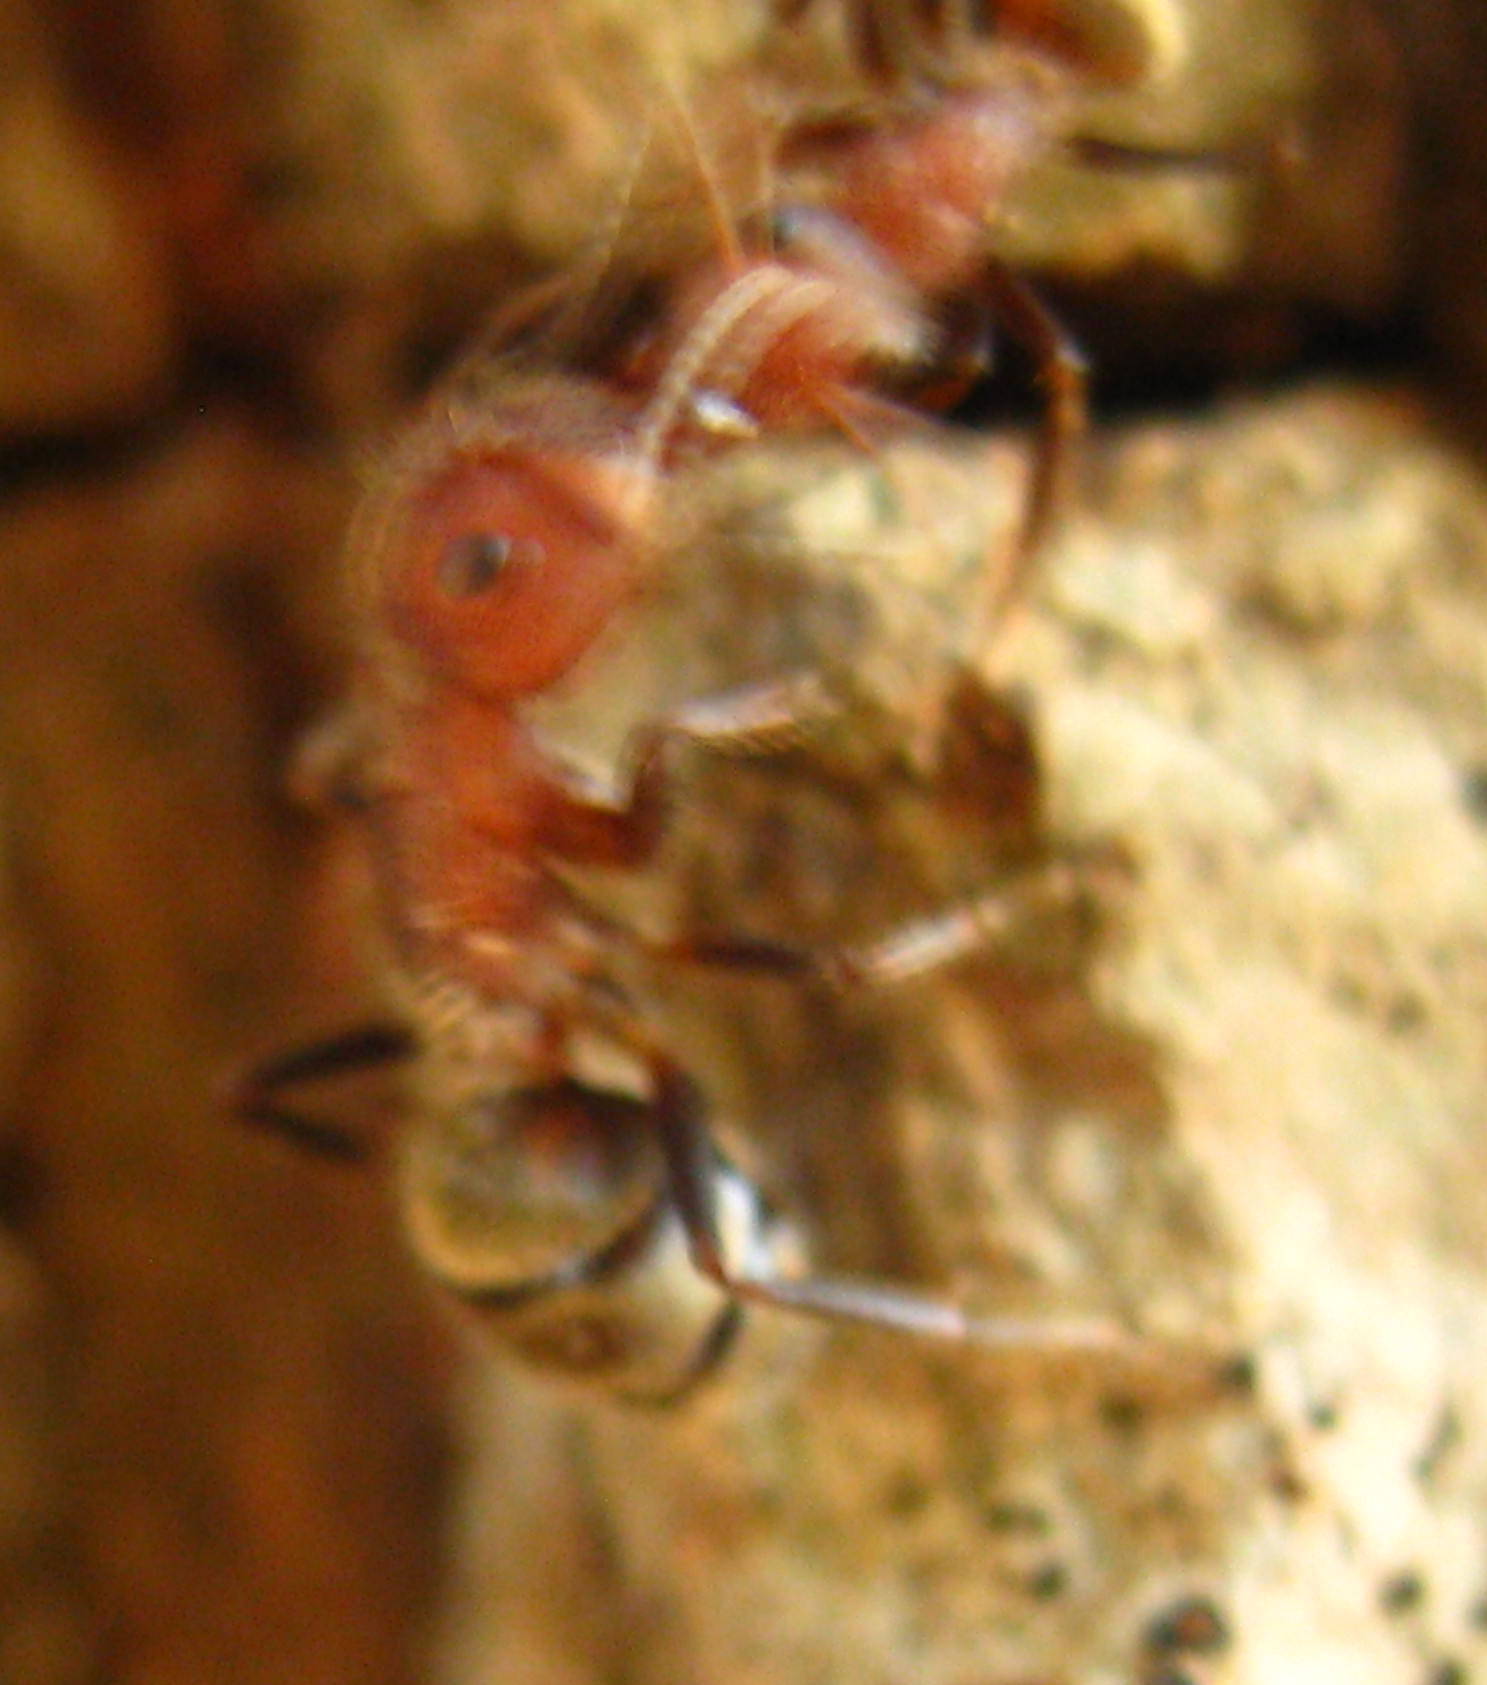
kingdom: Animalia
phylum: Arthropoda
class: Insecta
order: Hymenoptera
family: Formicidae
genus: Camponotus
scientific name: Camponotus planatus
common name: Compact carpenter ant
